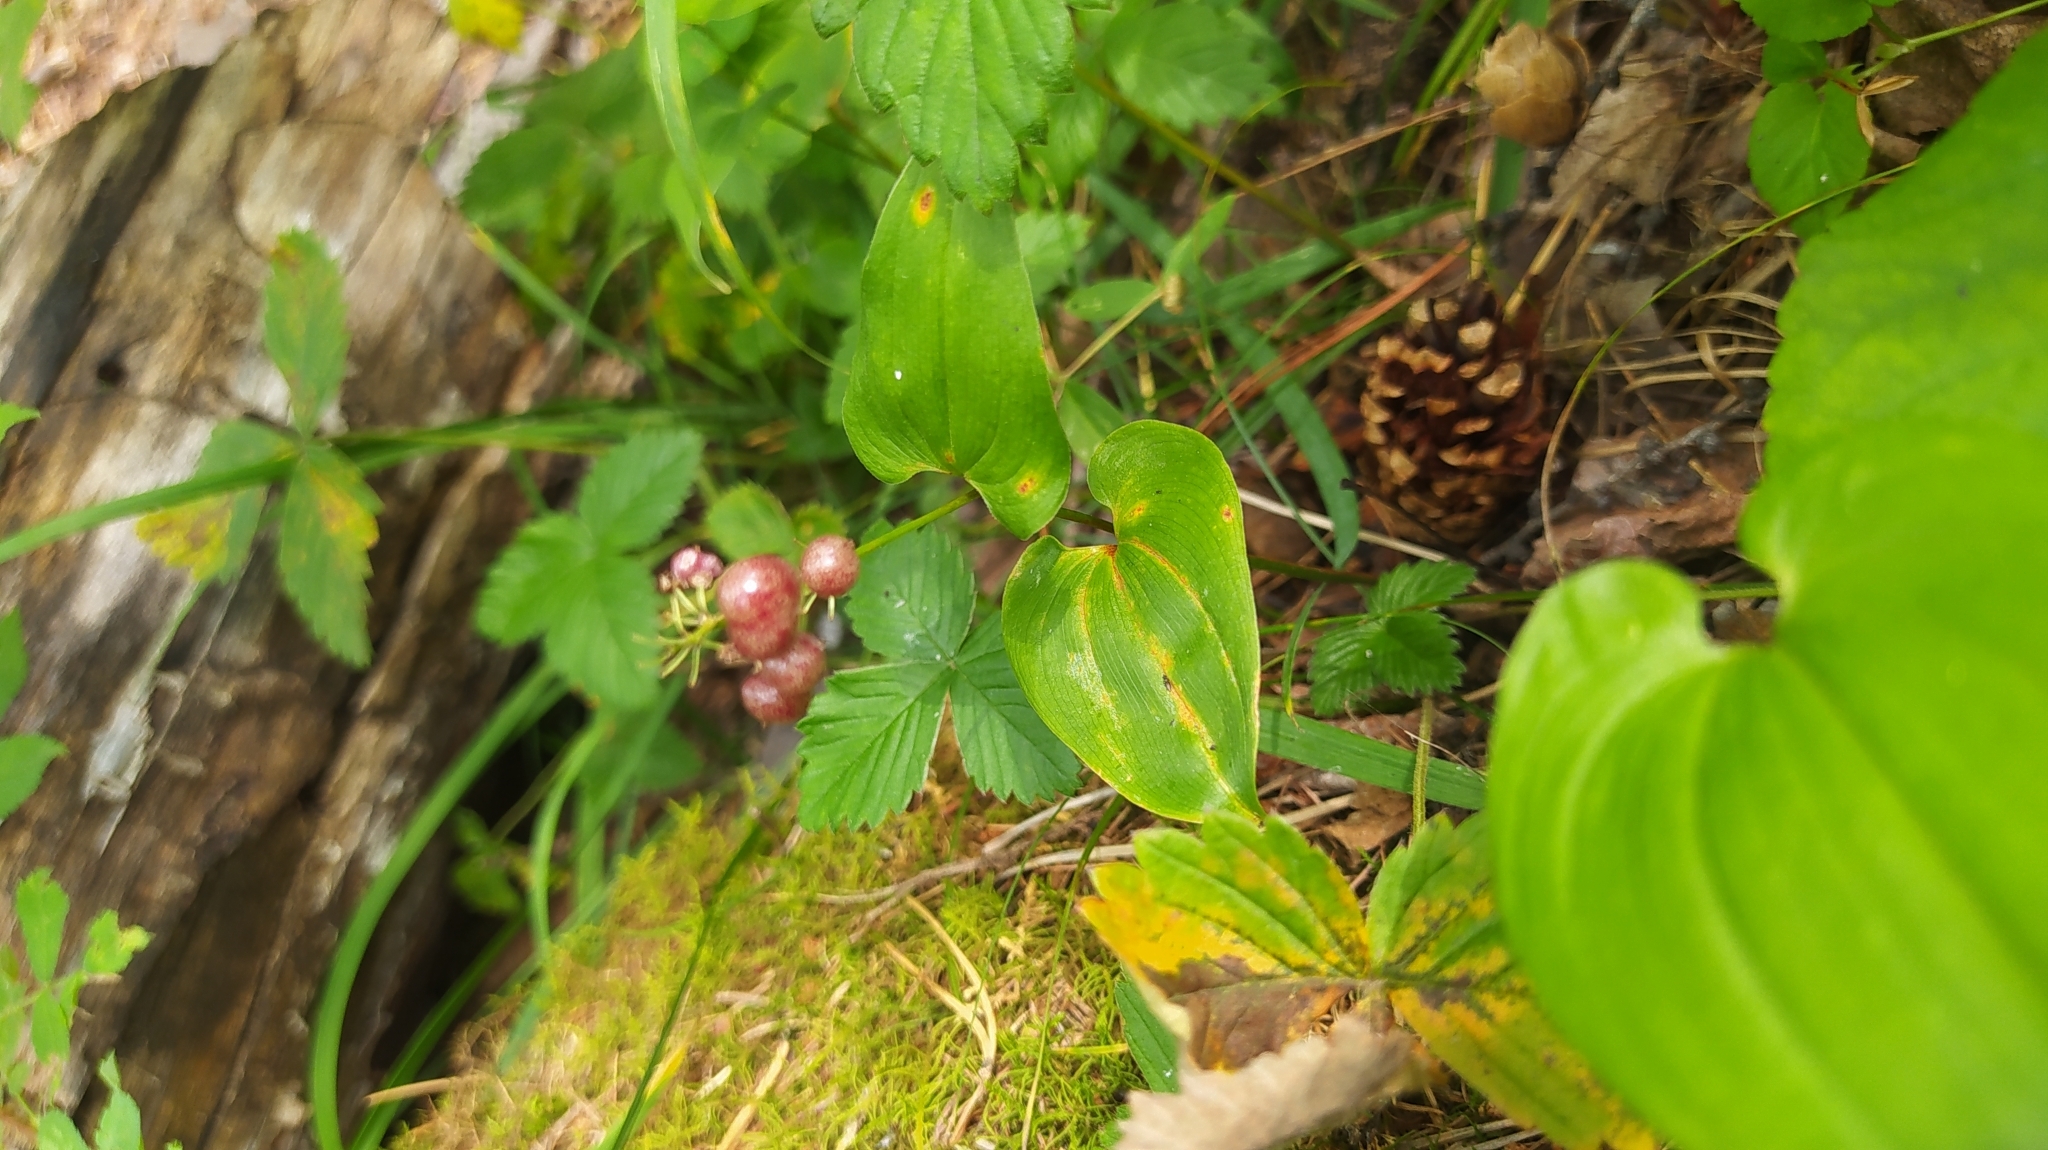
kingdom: Plantae
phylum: Tracheophyta
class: Liliopsida
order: Asparagales
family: Asparagaceae
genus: Maianthemum
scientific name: Maianthemum bifolium
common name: May lily
